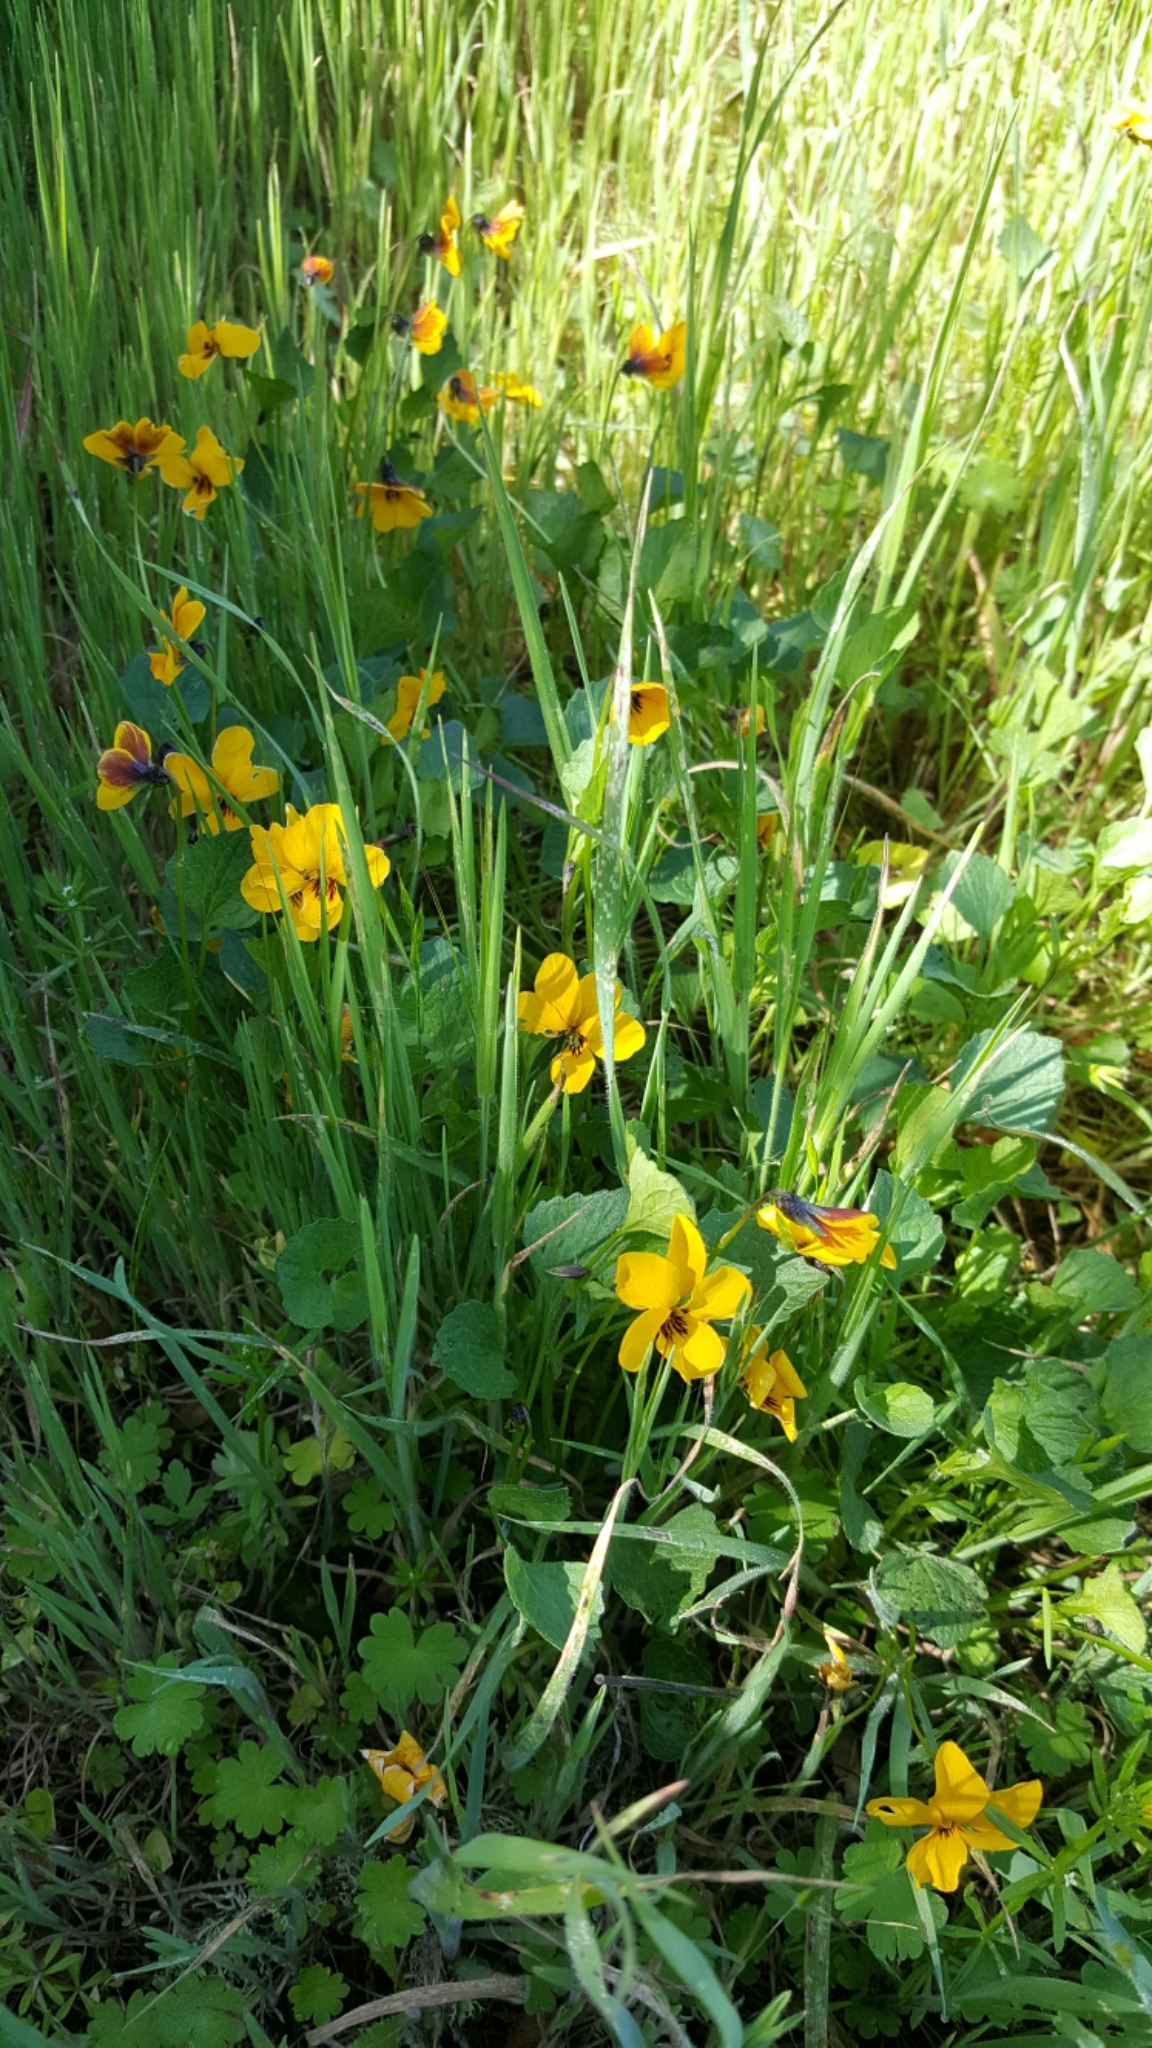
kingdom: Plantae
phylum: Tracheophyta
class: Magnoliopsida
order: Malpighiales
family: Violaceae
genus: Viola
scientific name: Viola pedunculata
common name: California golden violet
